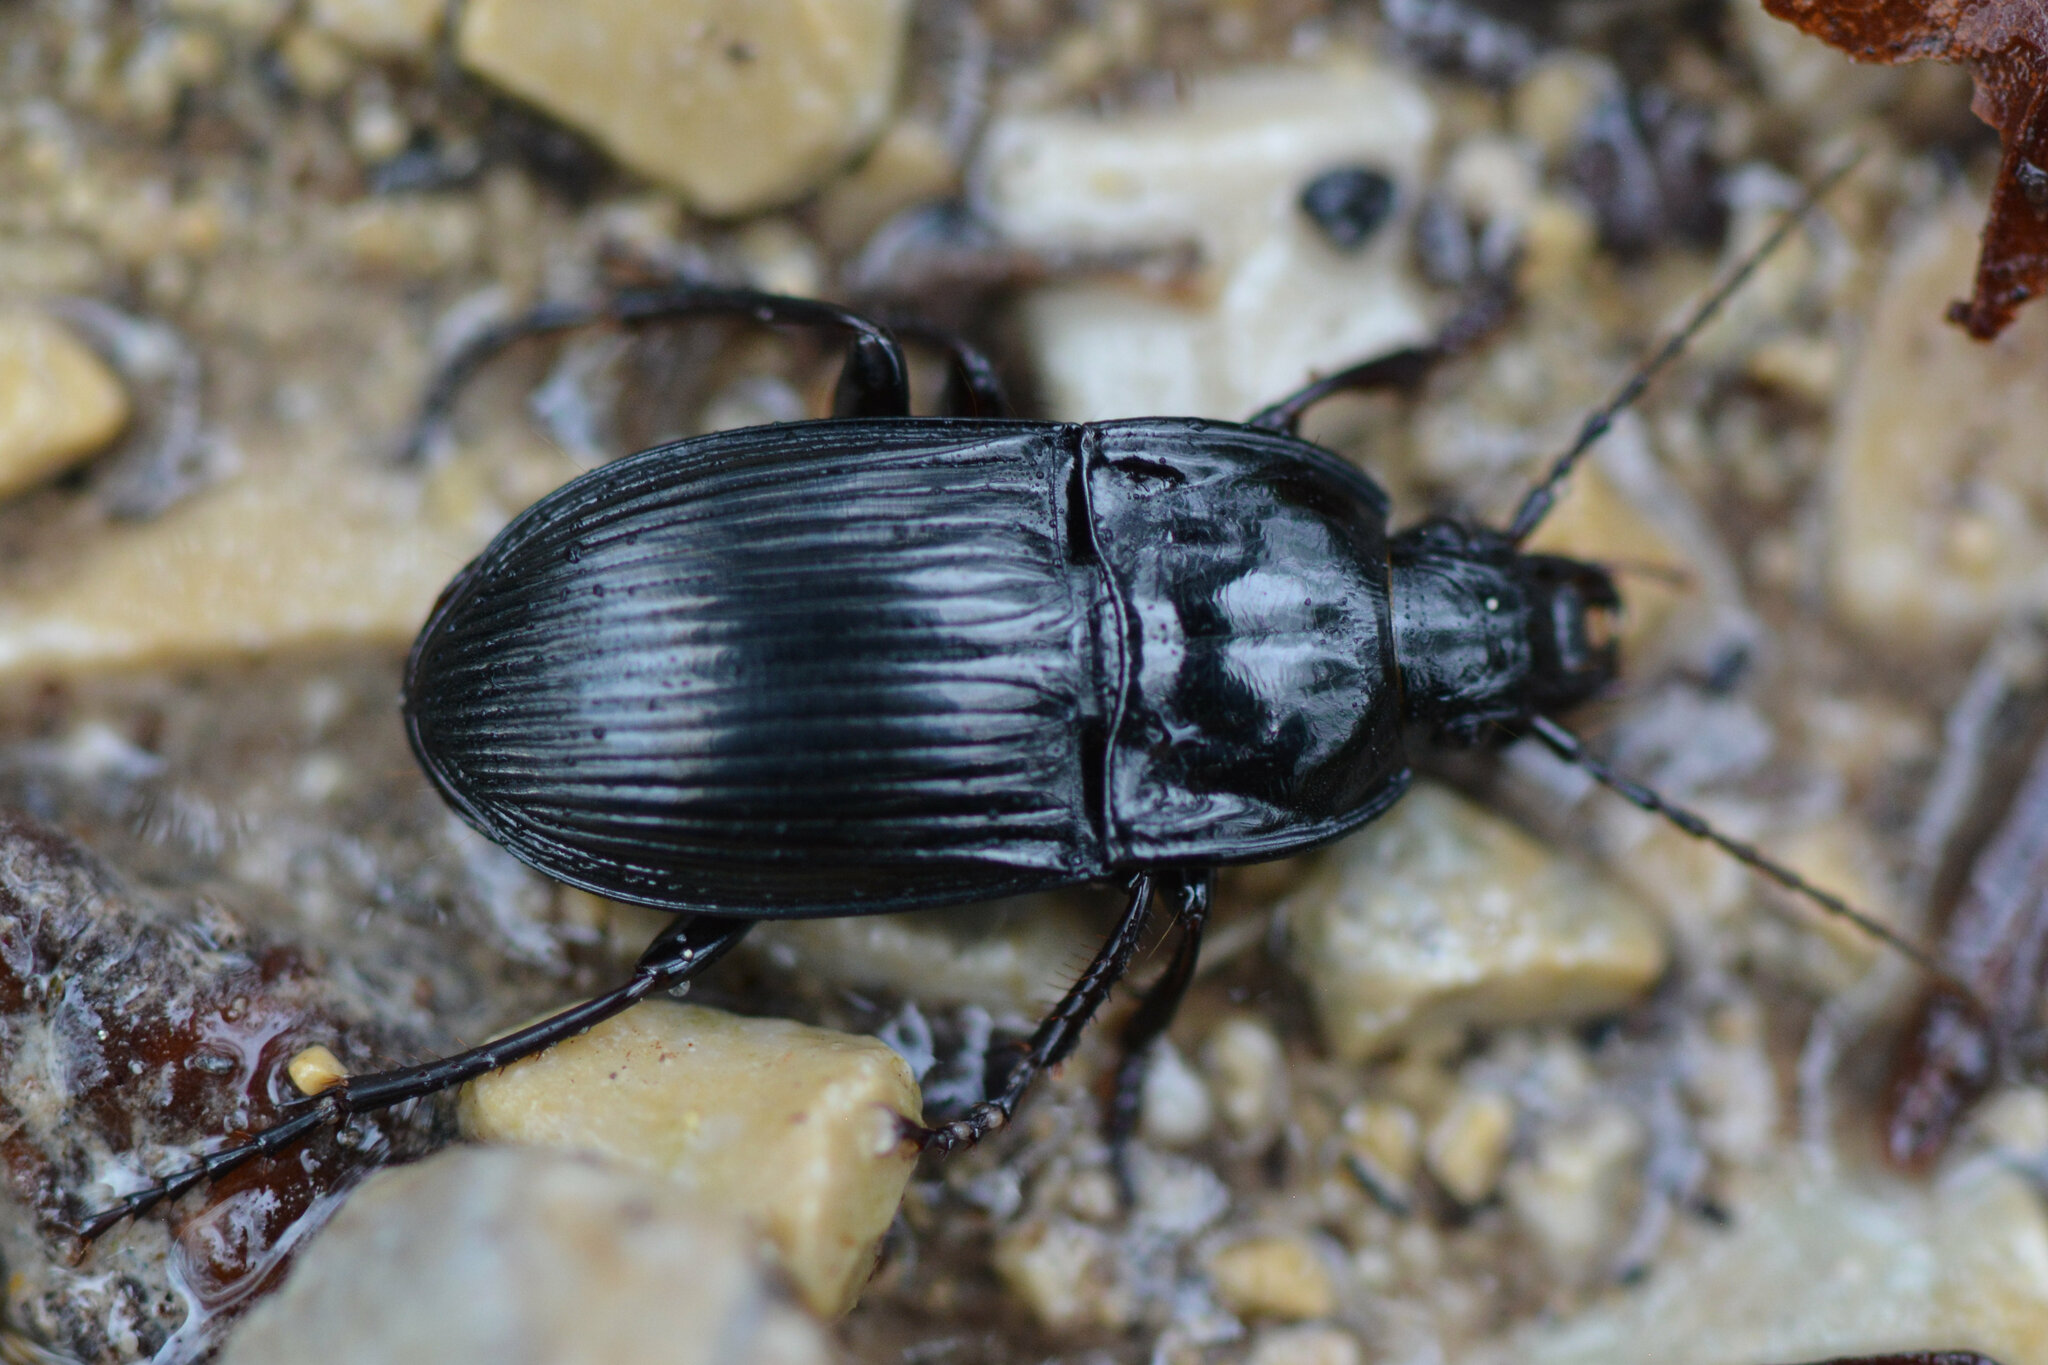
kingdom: Animalia
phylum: Arthropoda
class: Insecta
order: Coleoptera
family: Carabidae
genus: Abax
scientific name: Abax ovalis
